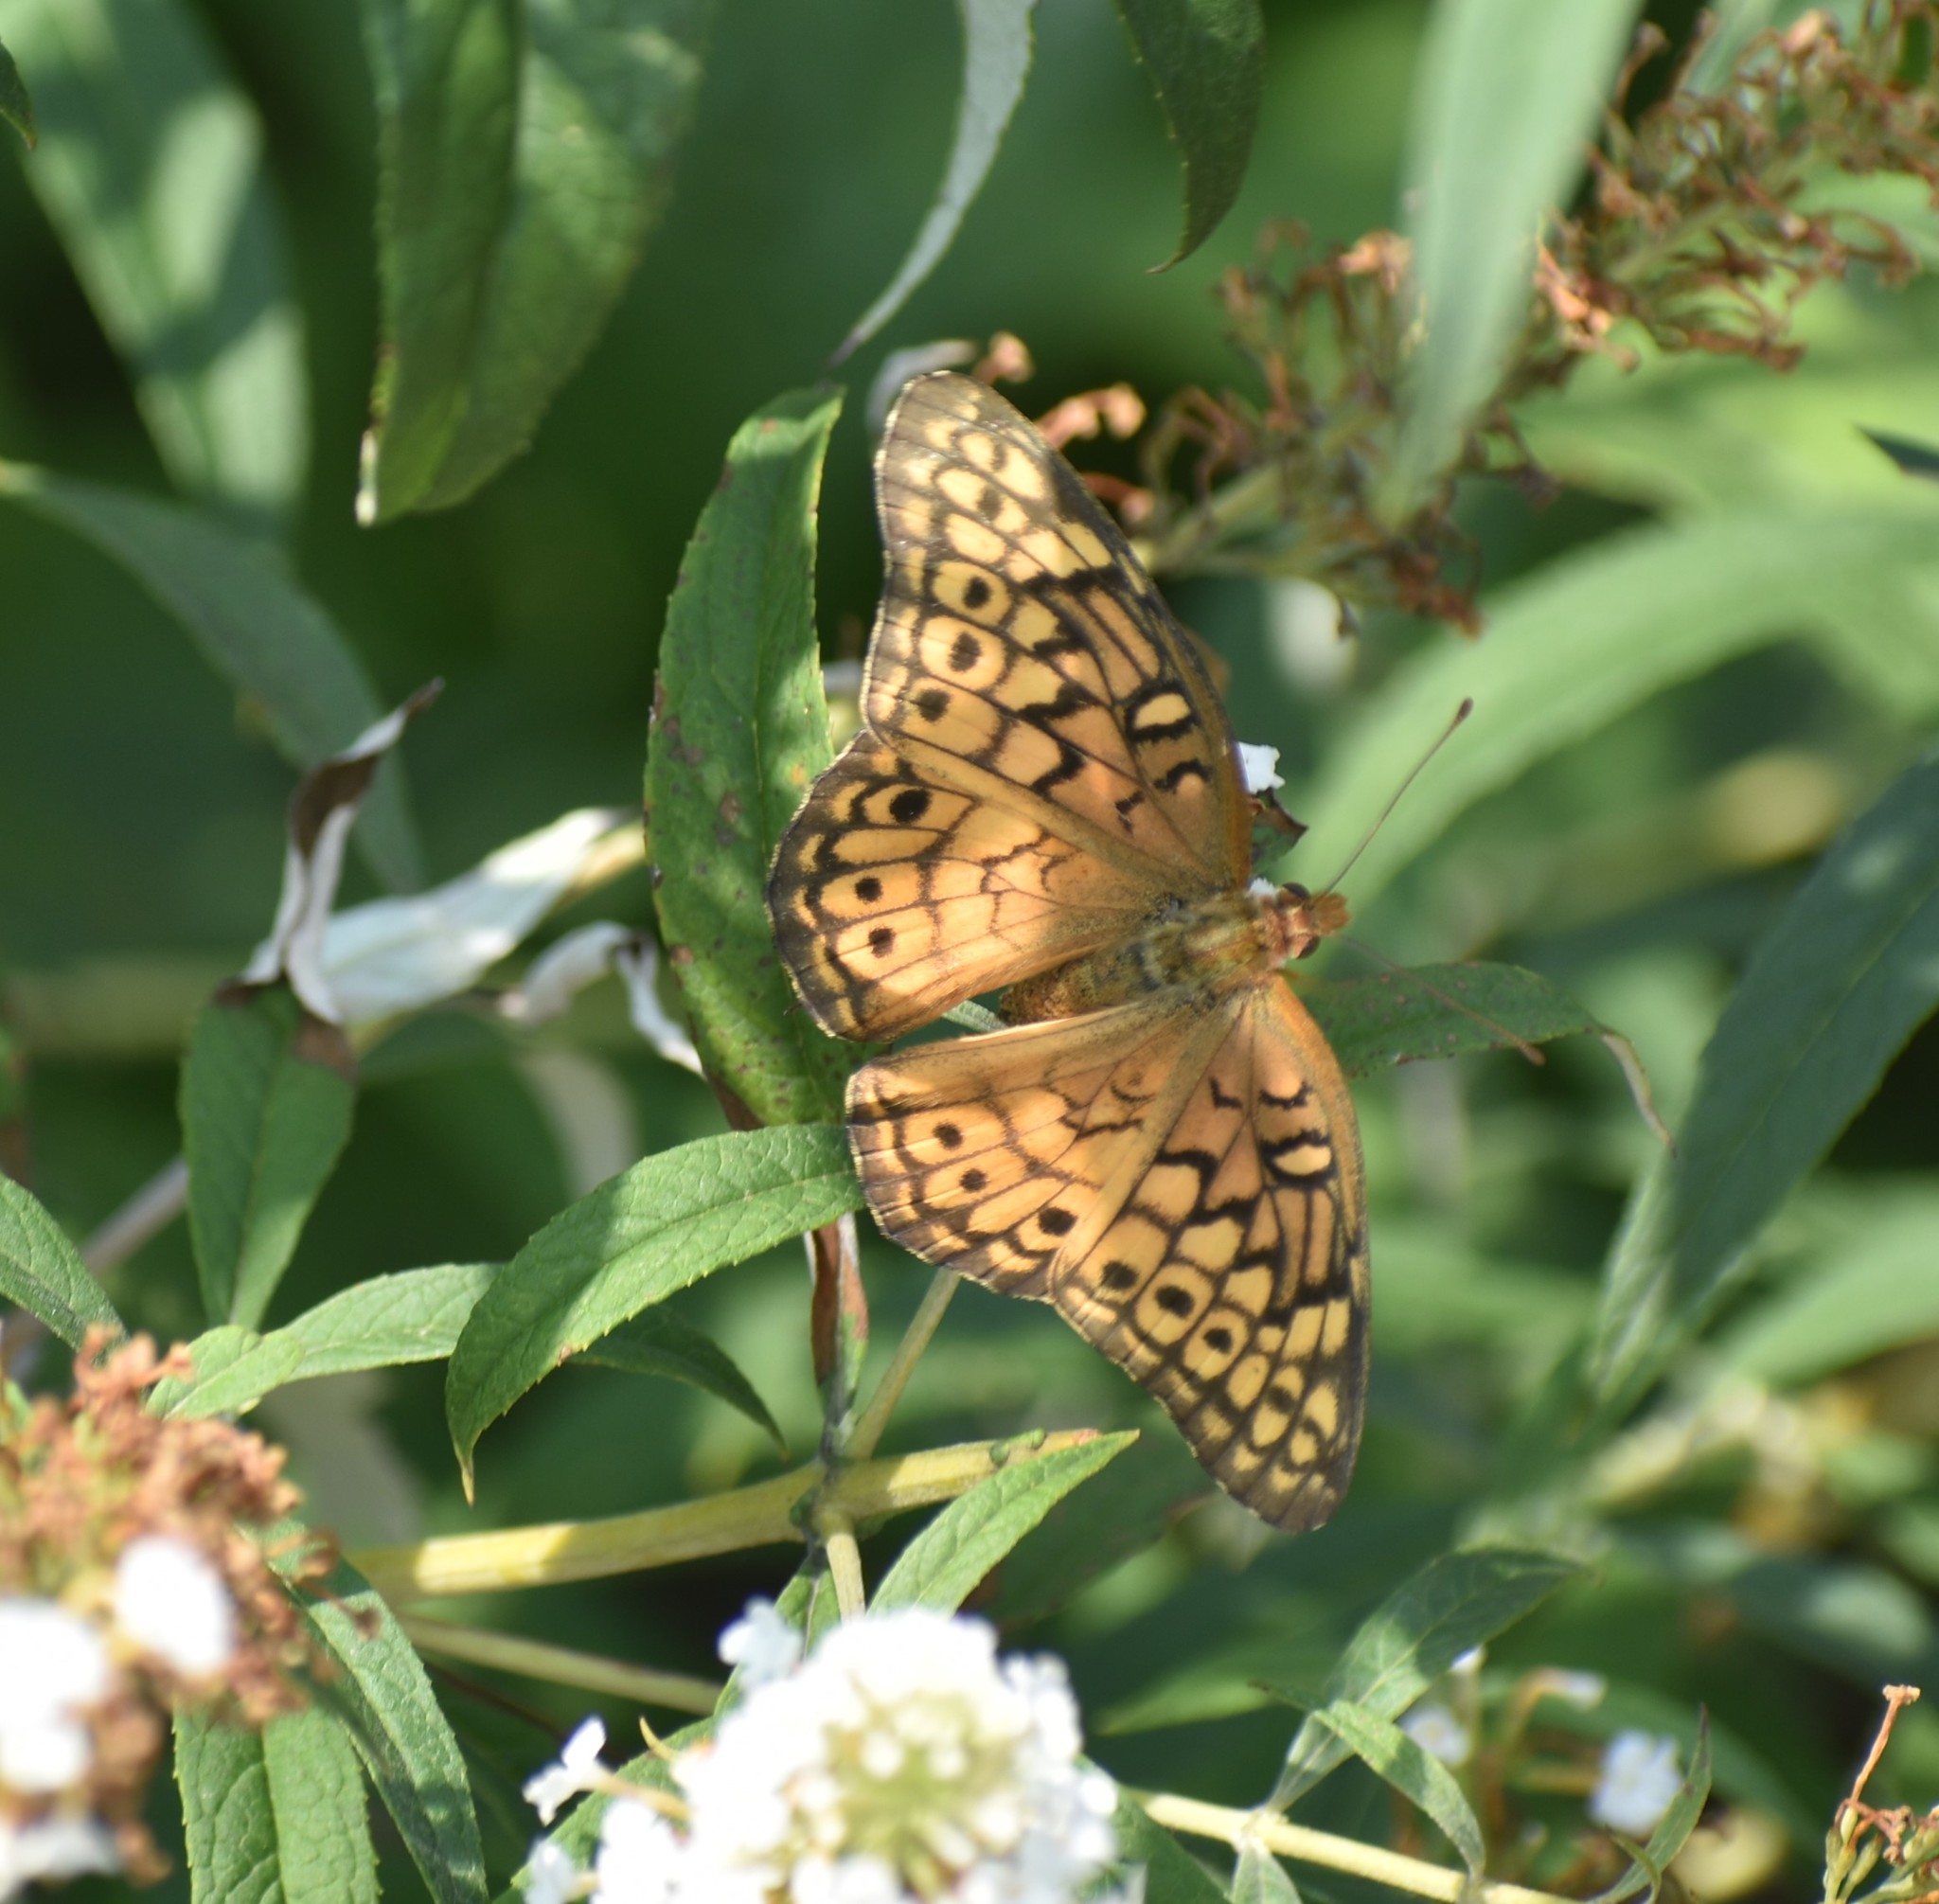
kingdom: Animalia
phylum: Arthropoda
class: Insecta
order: Lepidoptera
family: Nymphalidae
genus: Euptoieta
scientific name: Euptoieta claudia
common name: Variegated fritillary
